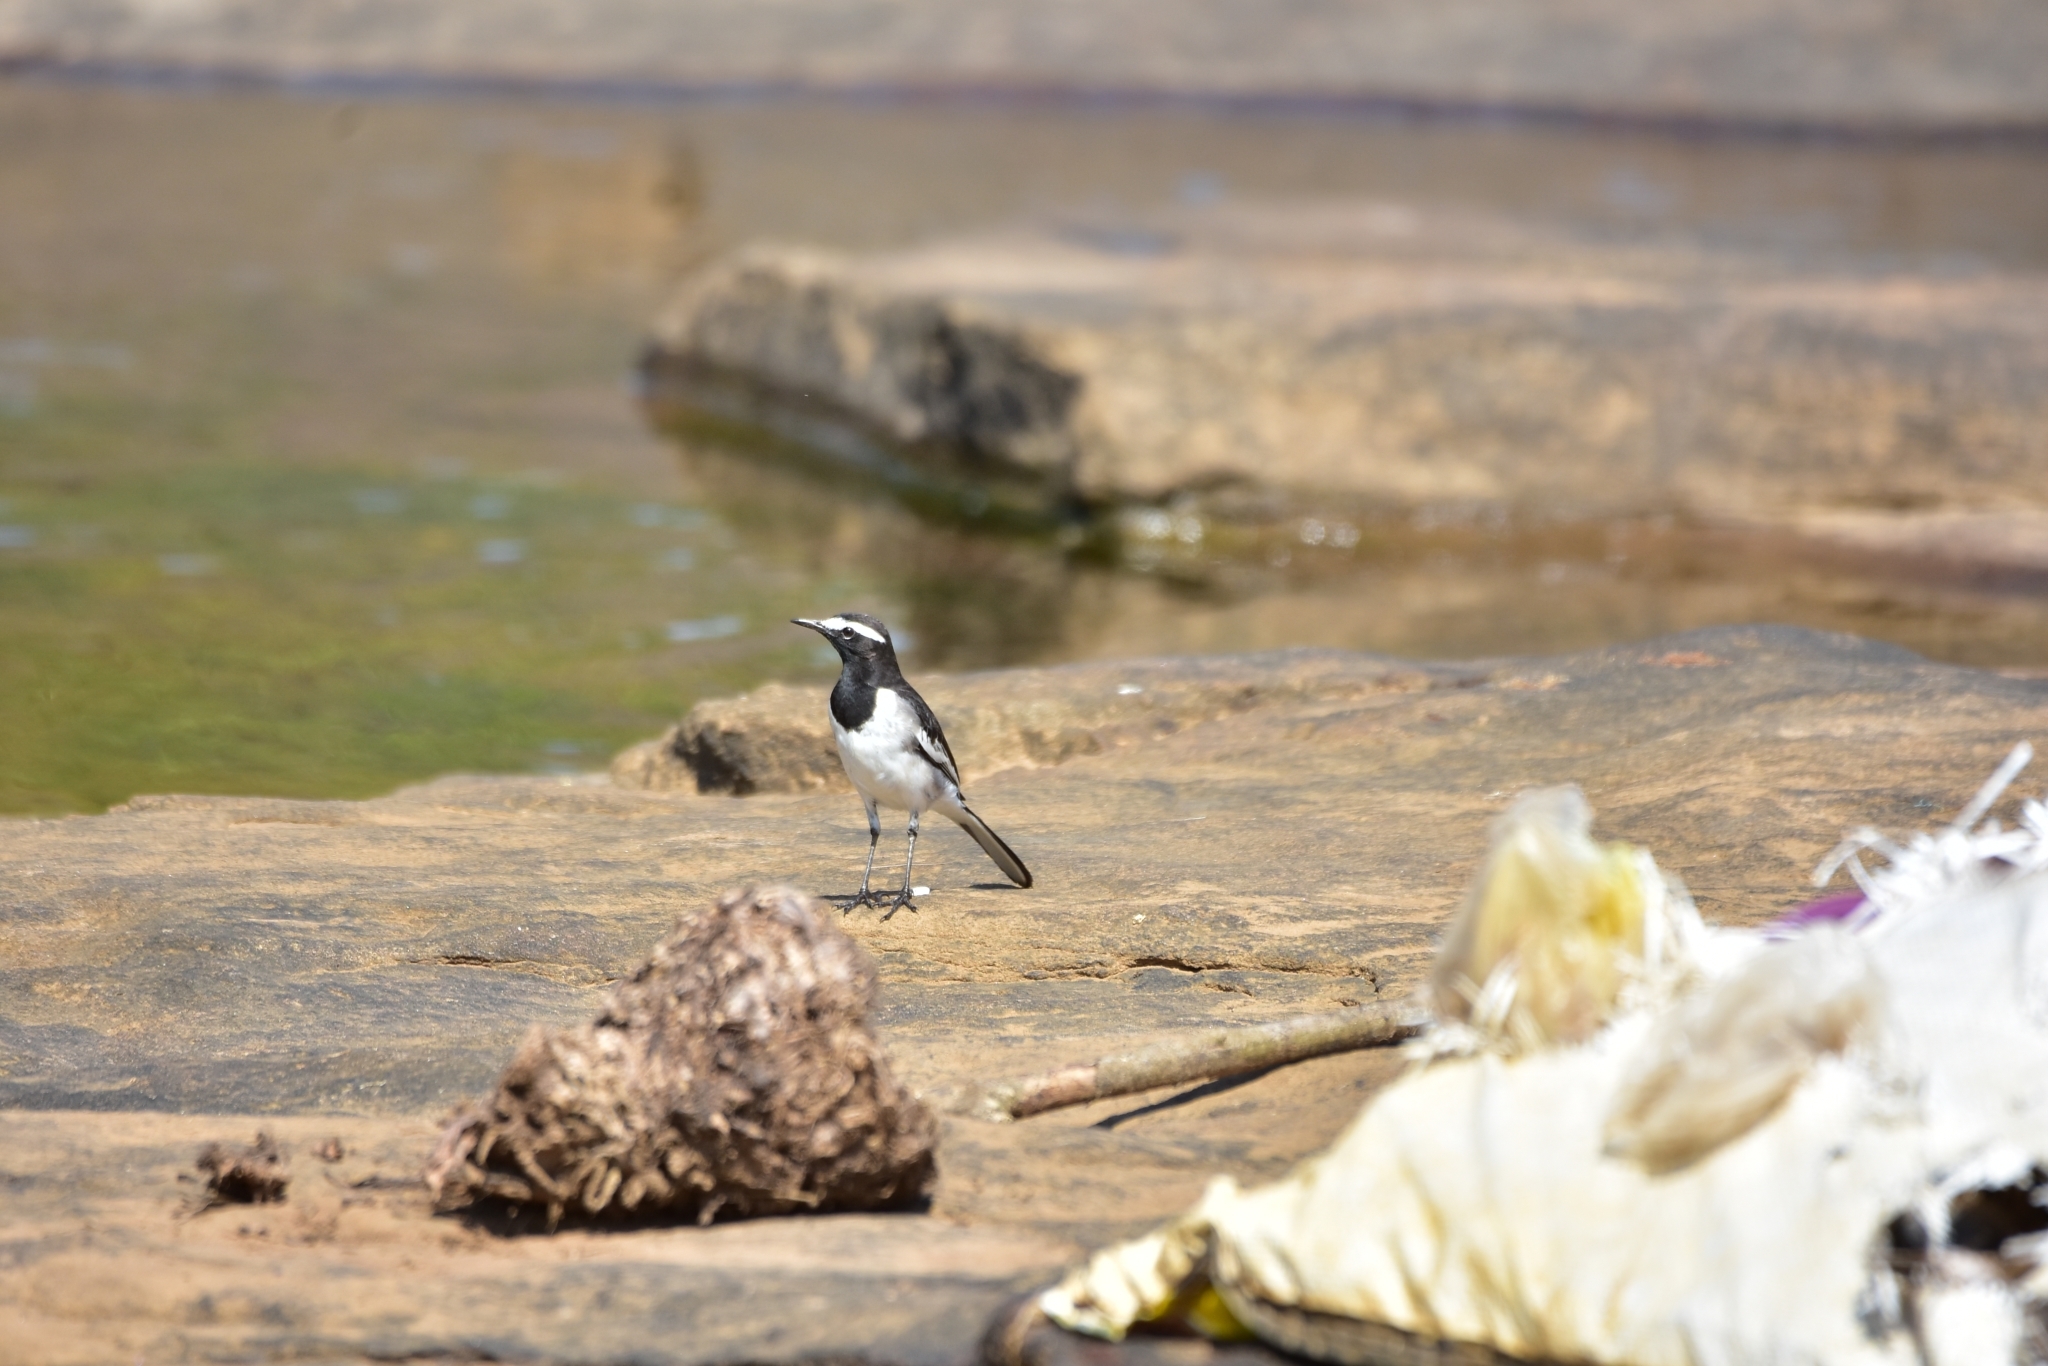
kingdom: Animalia
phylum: Chordata
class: Aves
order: Passeriformes
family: Motacillidae
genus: Motacilla
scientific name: Motacilla maderaspatensis
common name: White-browed wagtail
